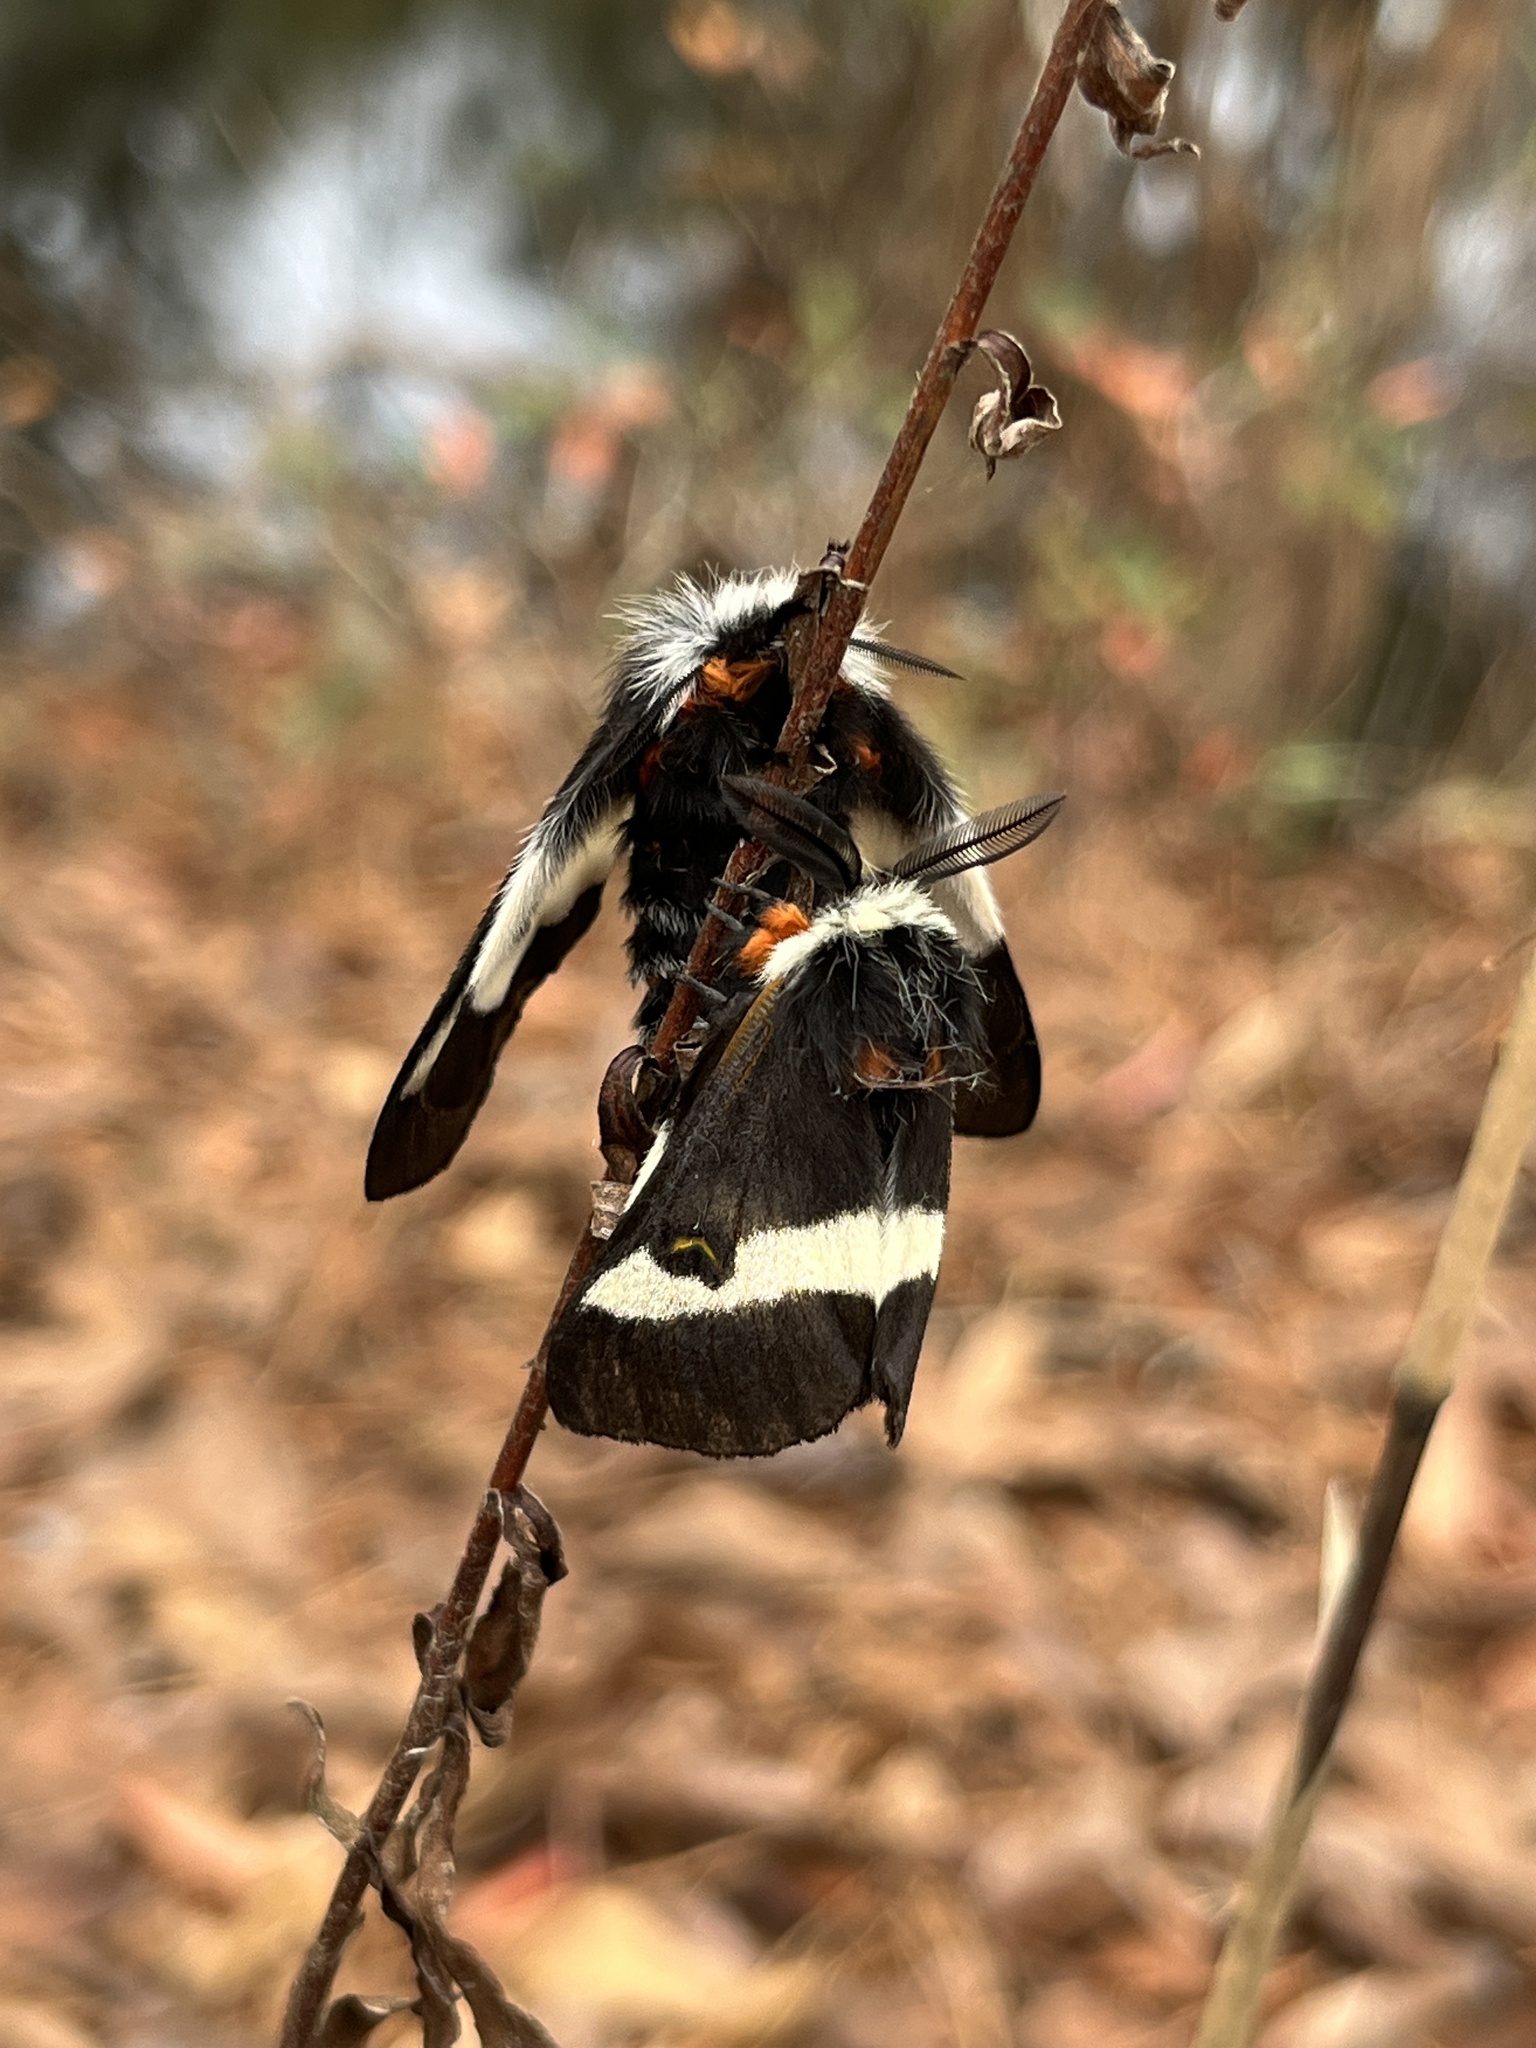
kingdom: Animalia
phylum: Arthropoda
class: Insecta
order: Lepidoptera
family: Saturniidae
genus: Hemileuca
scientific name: Hemileuca maia
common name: Eastern buckmoth
